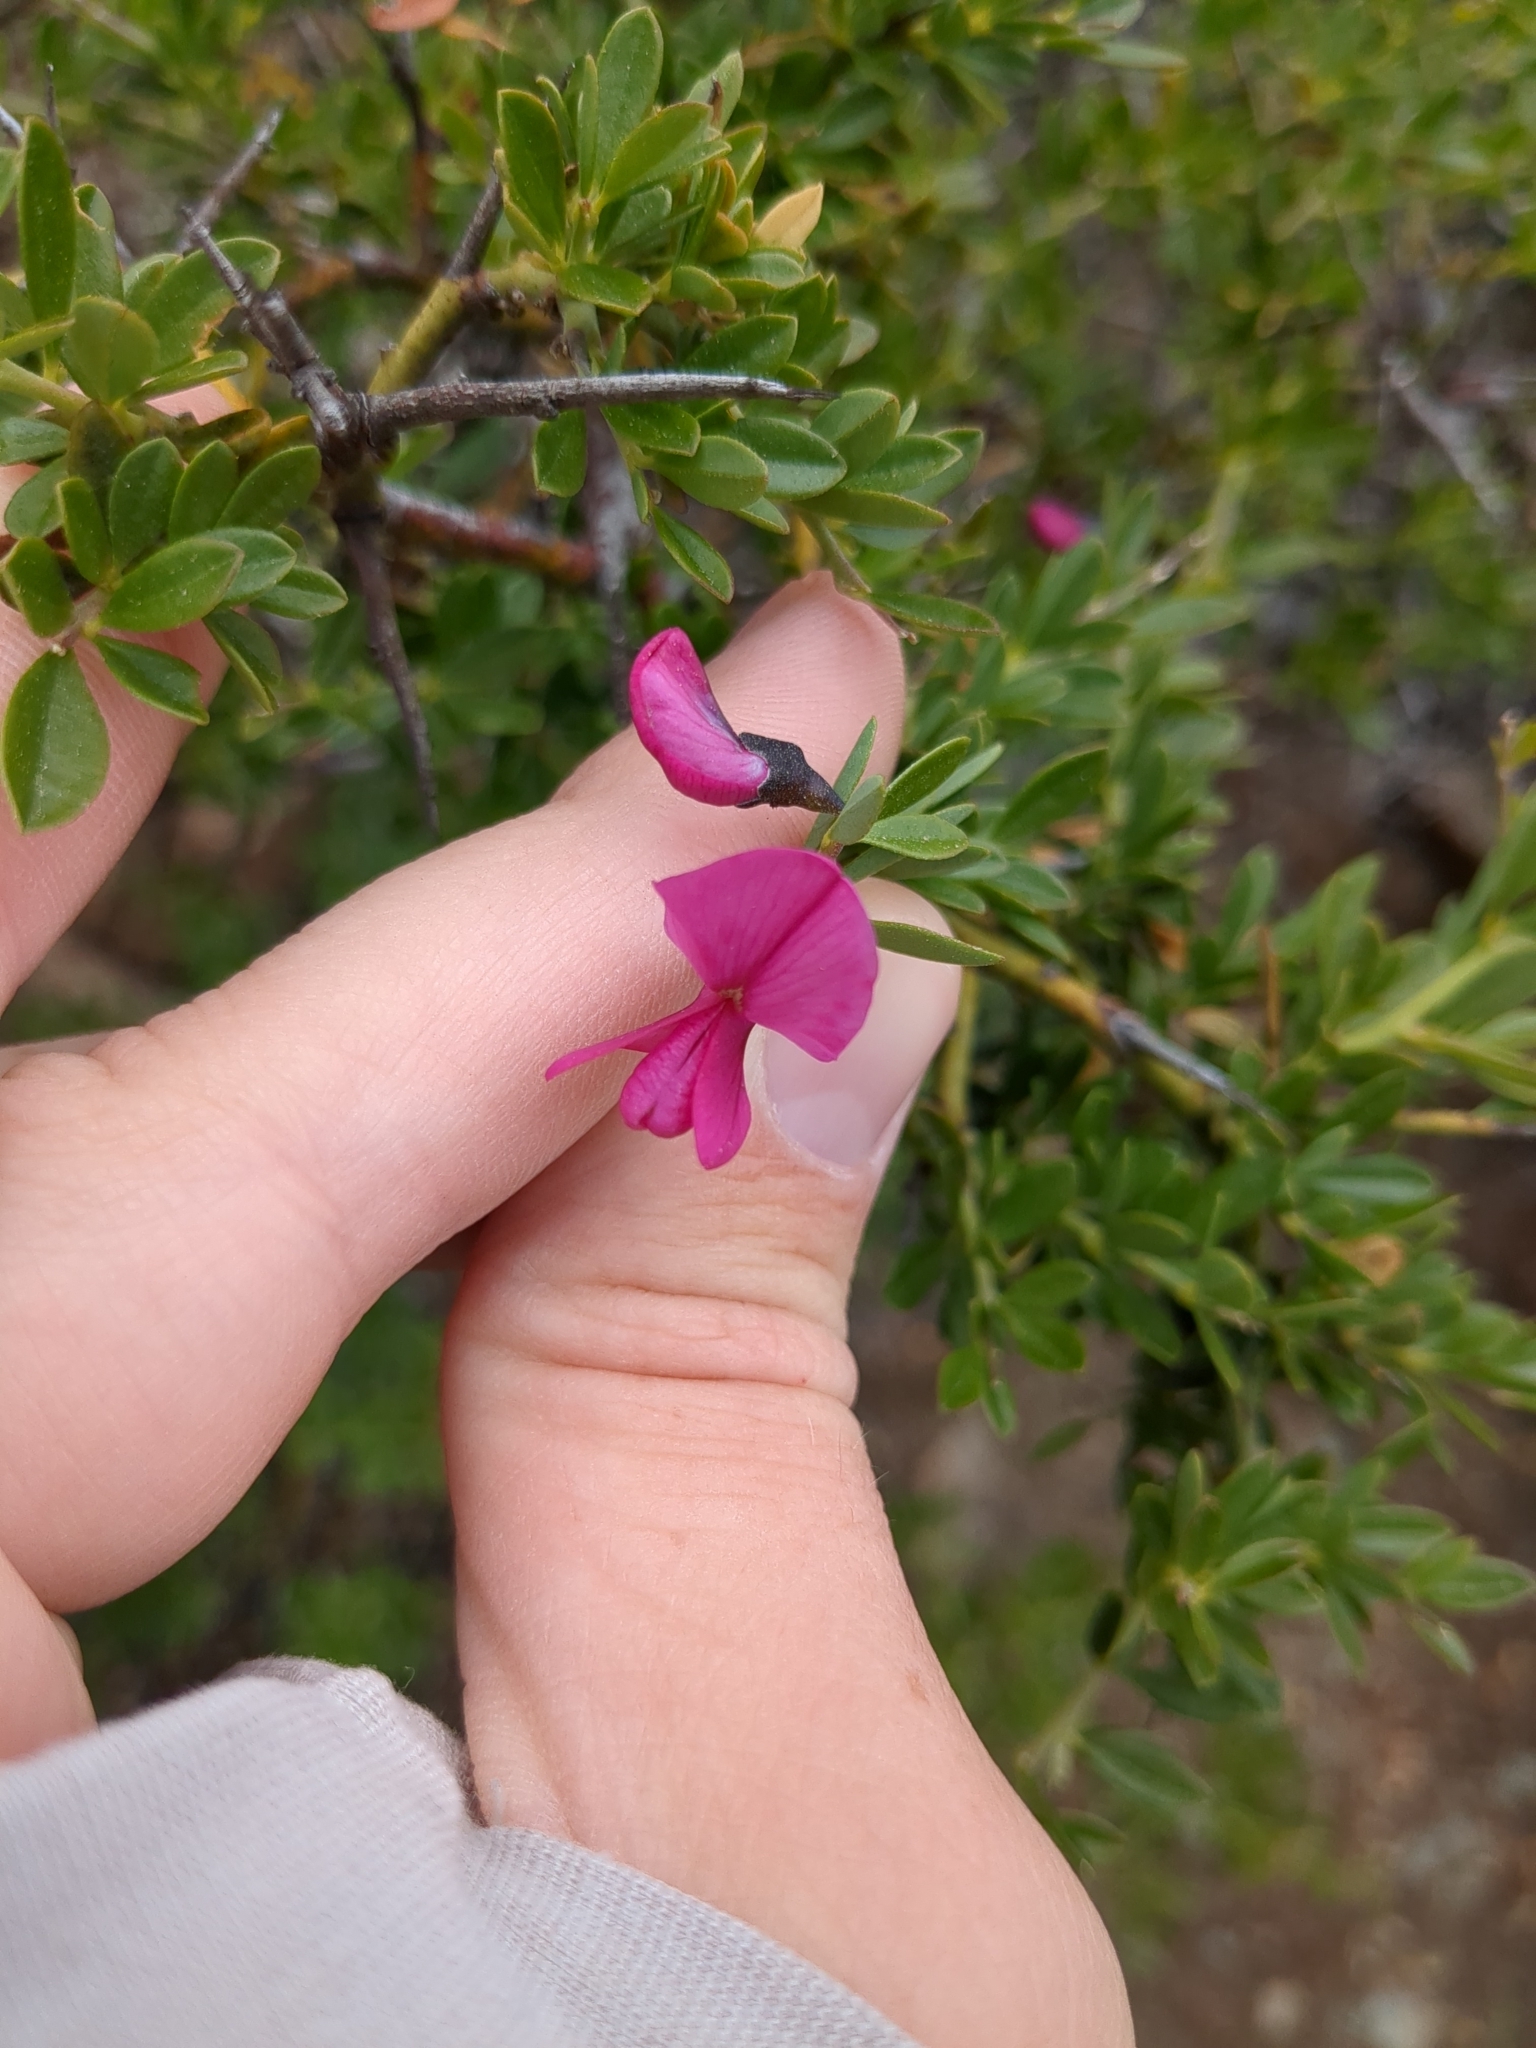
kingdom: Plantae
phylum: Tracheophyta
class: Magnoliopsida
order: Fabales
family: Fabaceae
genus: Pickeringia
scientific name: Pickeringia montana
